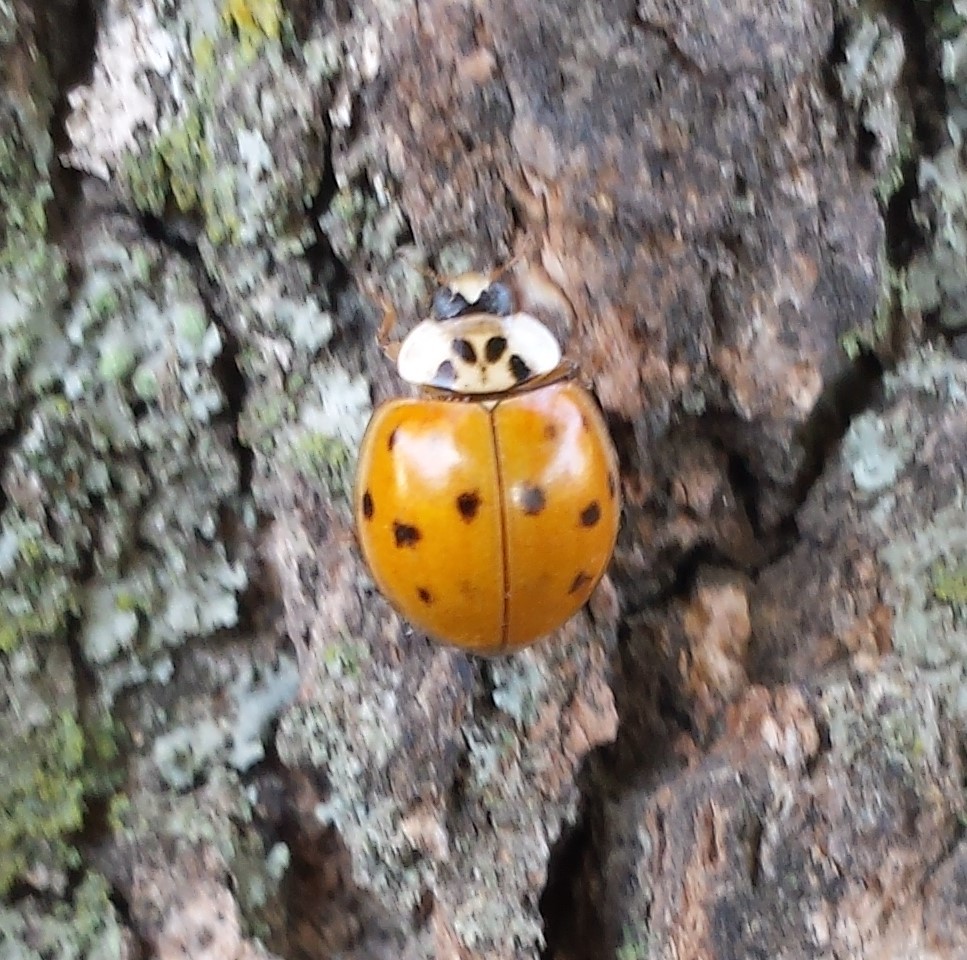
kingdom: Animalia
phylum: Arthropoda
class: Insecta
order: Coleoptera
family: Coccinellidae
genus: Harmonia
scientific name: Harmonia axyridis
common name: Harlequin ladybird
